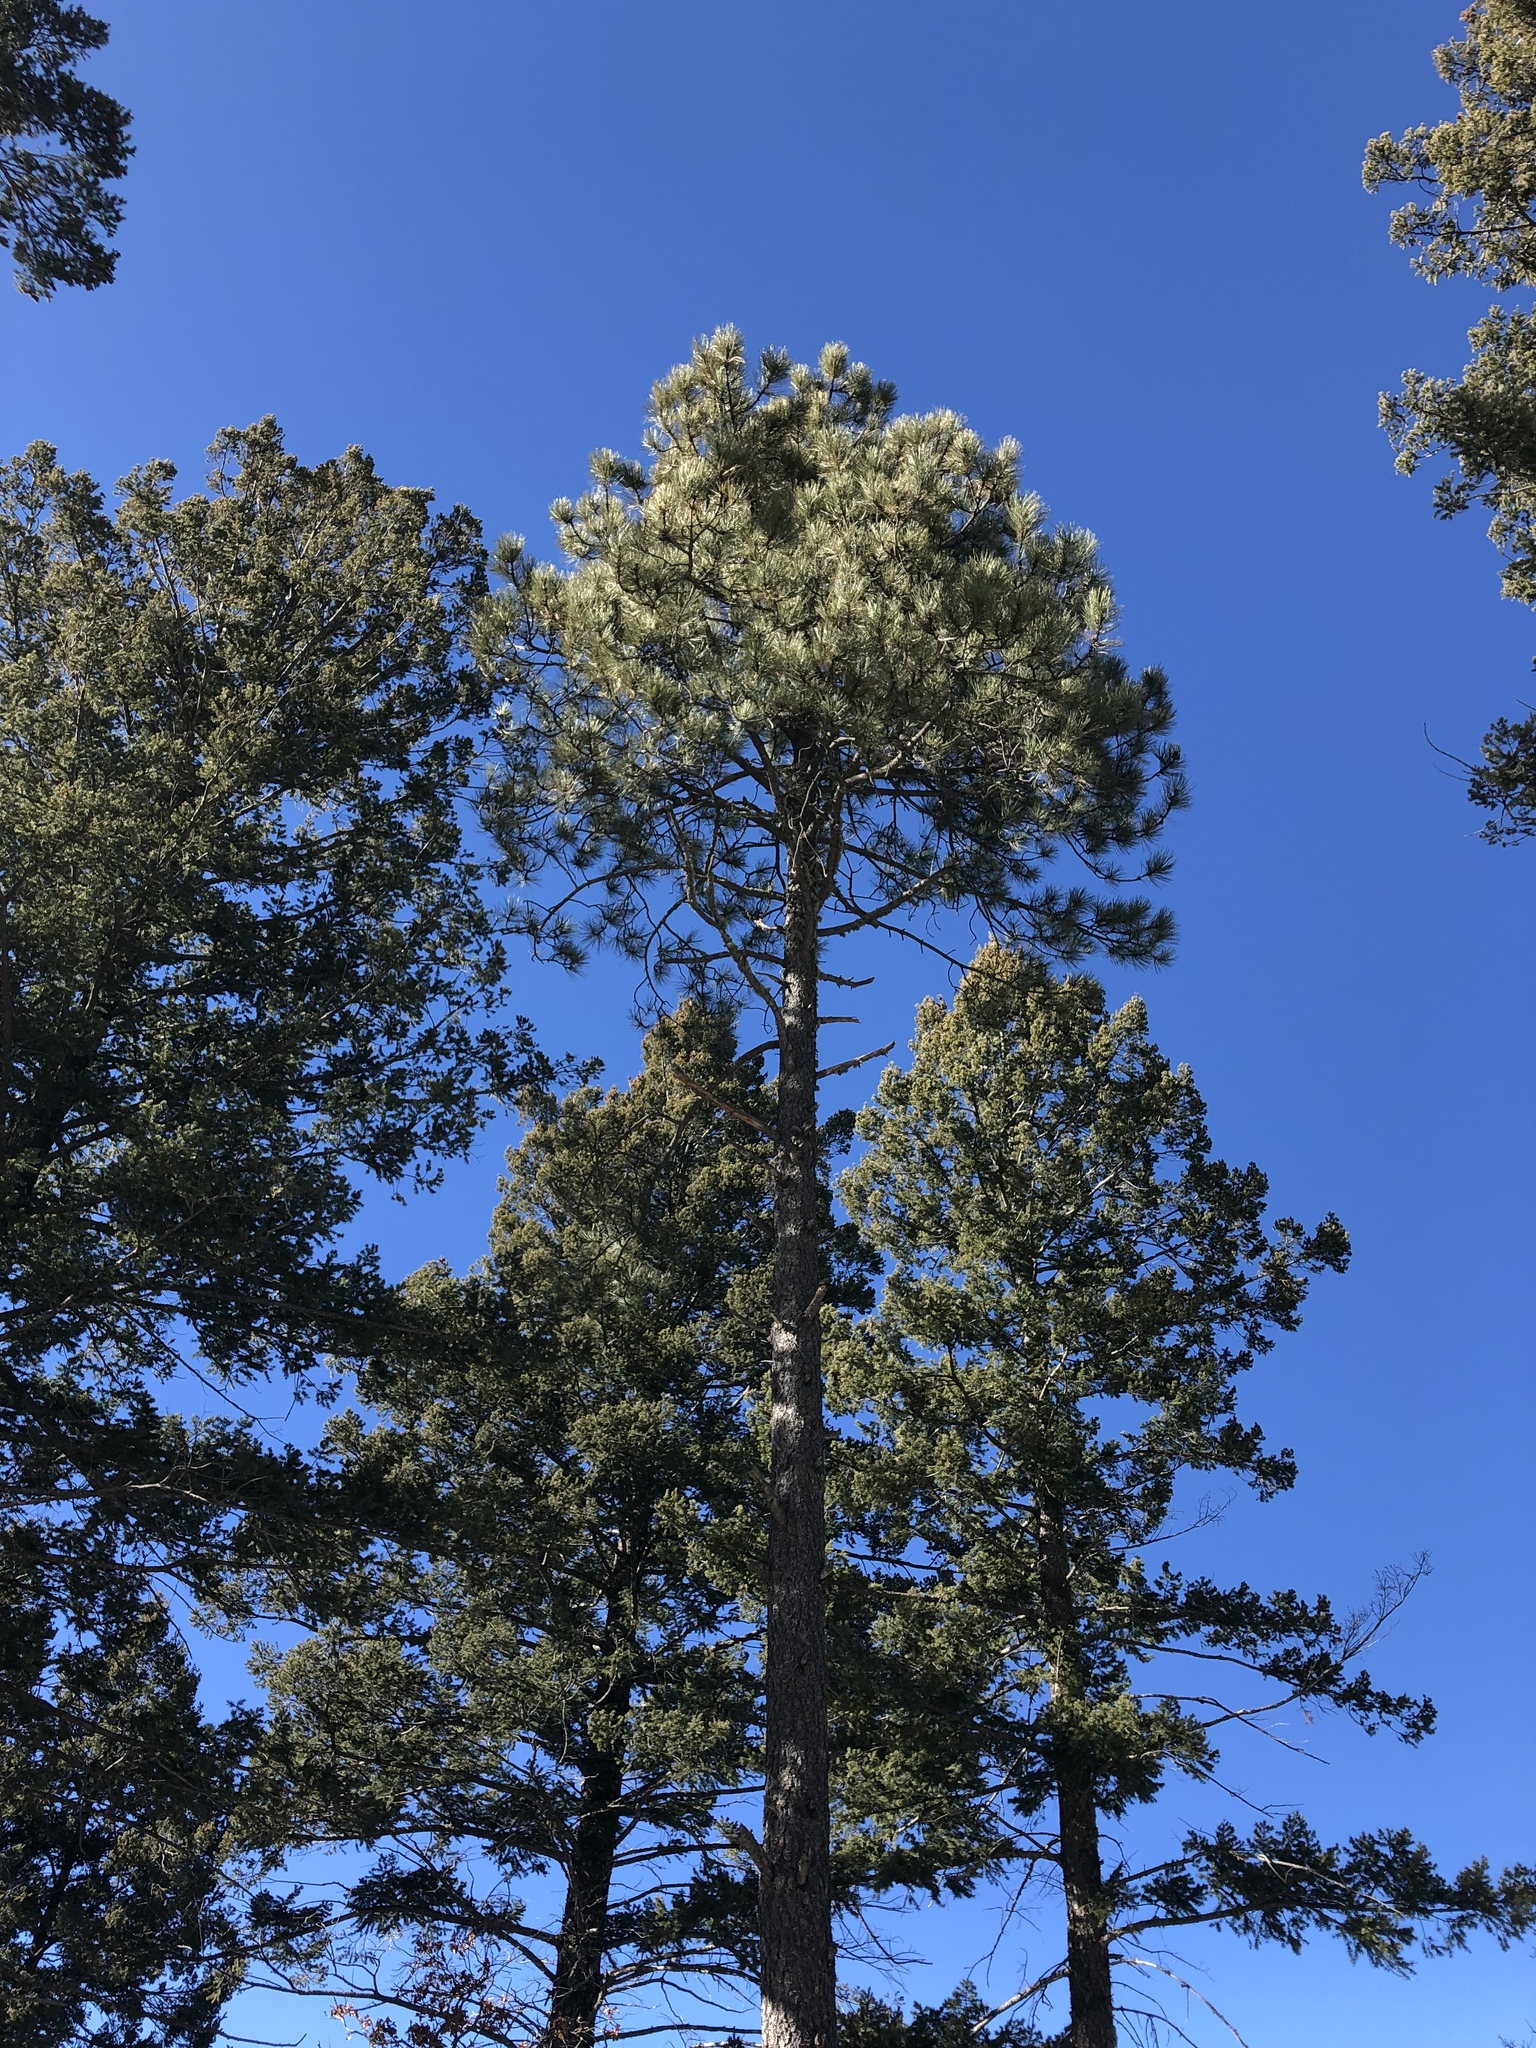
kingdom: Plantae
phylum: Tracheophyta
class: Pinopsida
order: Pinales
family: Pinaceae
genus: Pinus
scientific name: Pinus ponderosa
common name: Western yellow-pine
